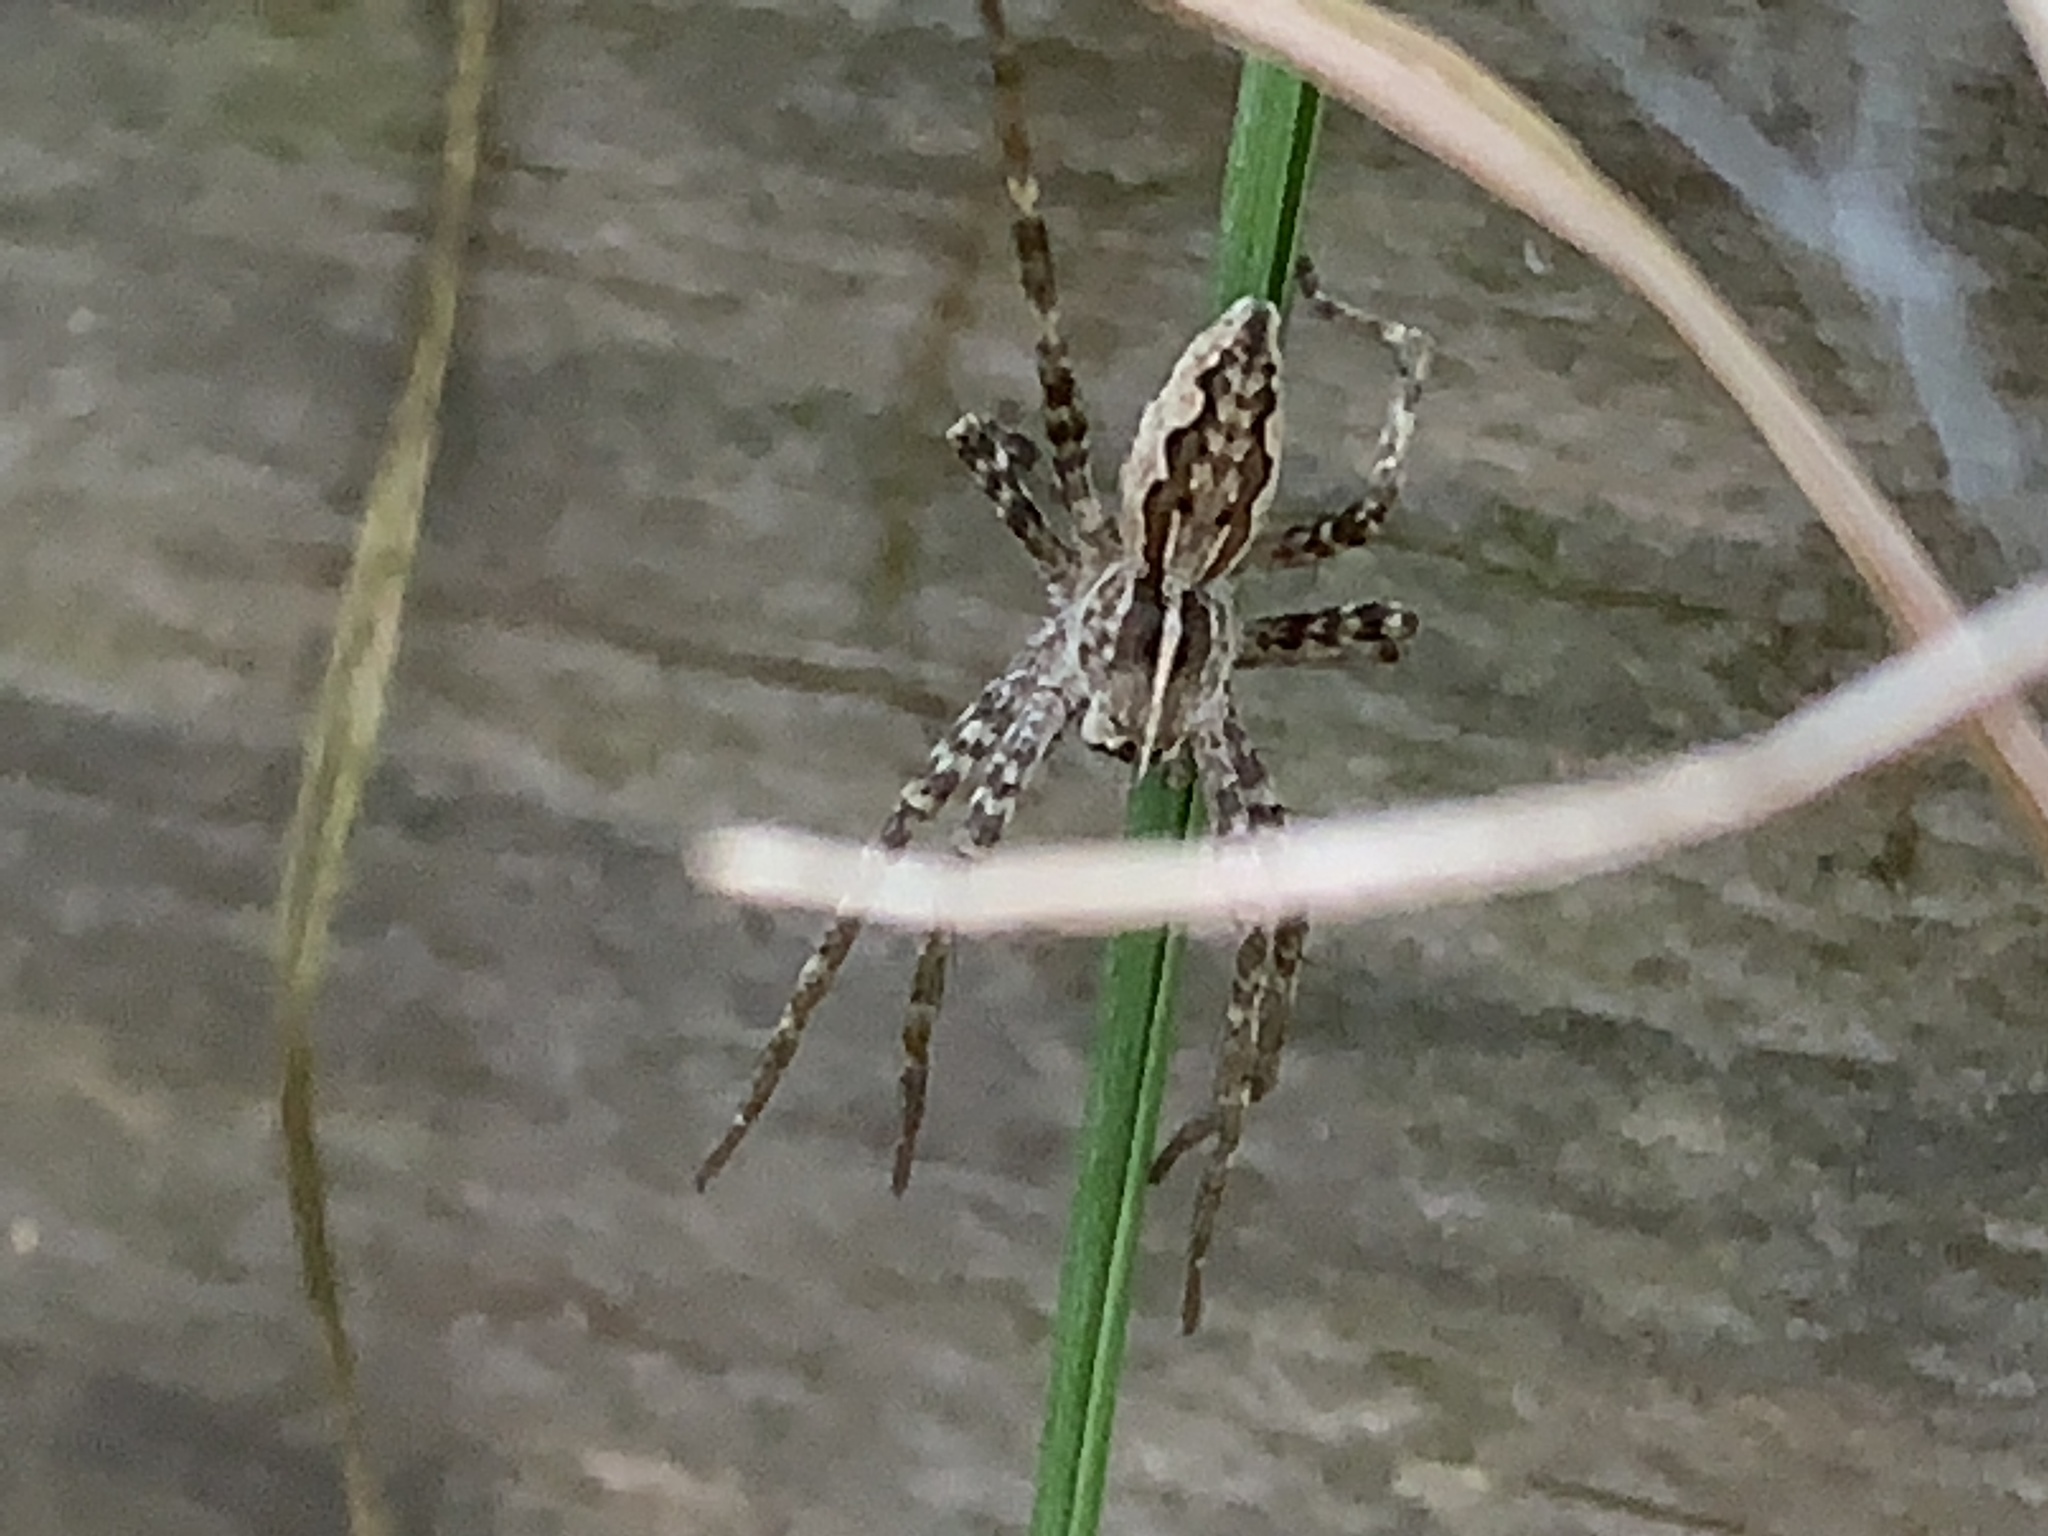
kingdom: Animalia
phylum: Arthropoda
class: Arachnida
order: Araneae
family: Pisauridae
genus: Pisaura
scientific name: Pisaura mirabilis
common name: Tent spider
